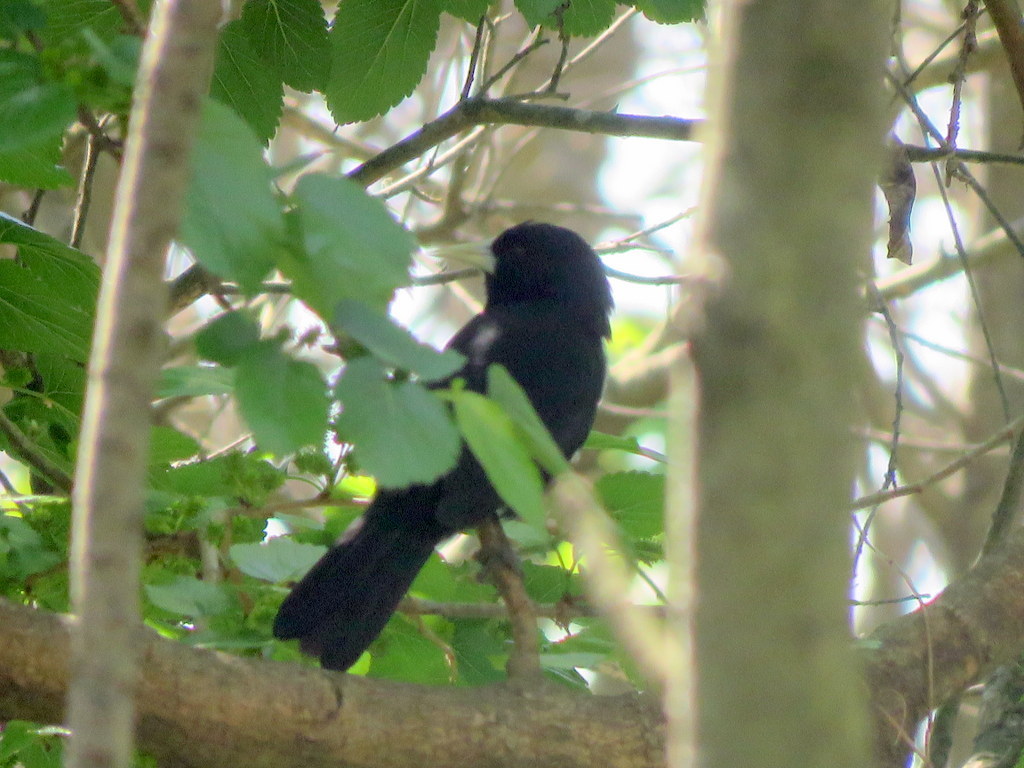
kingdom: Animalia
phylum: Chordata
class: Aves
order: Passeriformes
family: Icteridae
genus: Cacicus
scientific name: Cacicus solitarius
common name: Solitary cacique
